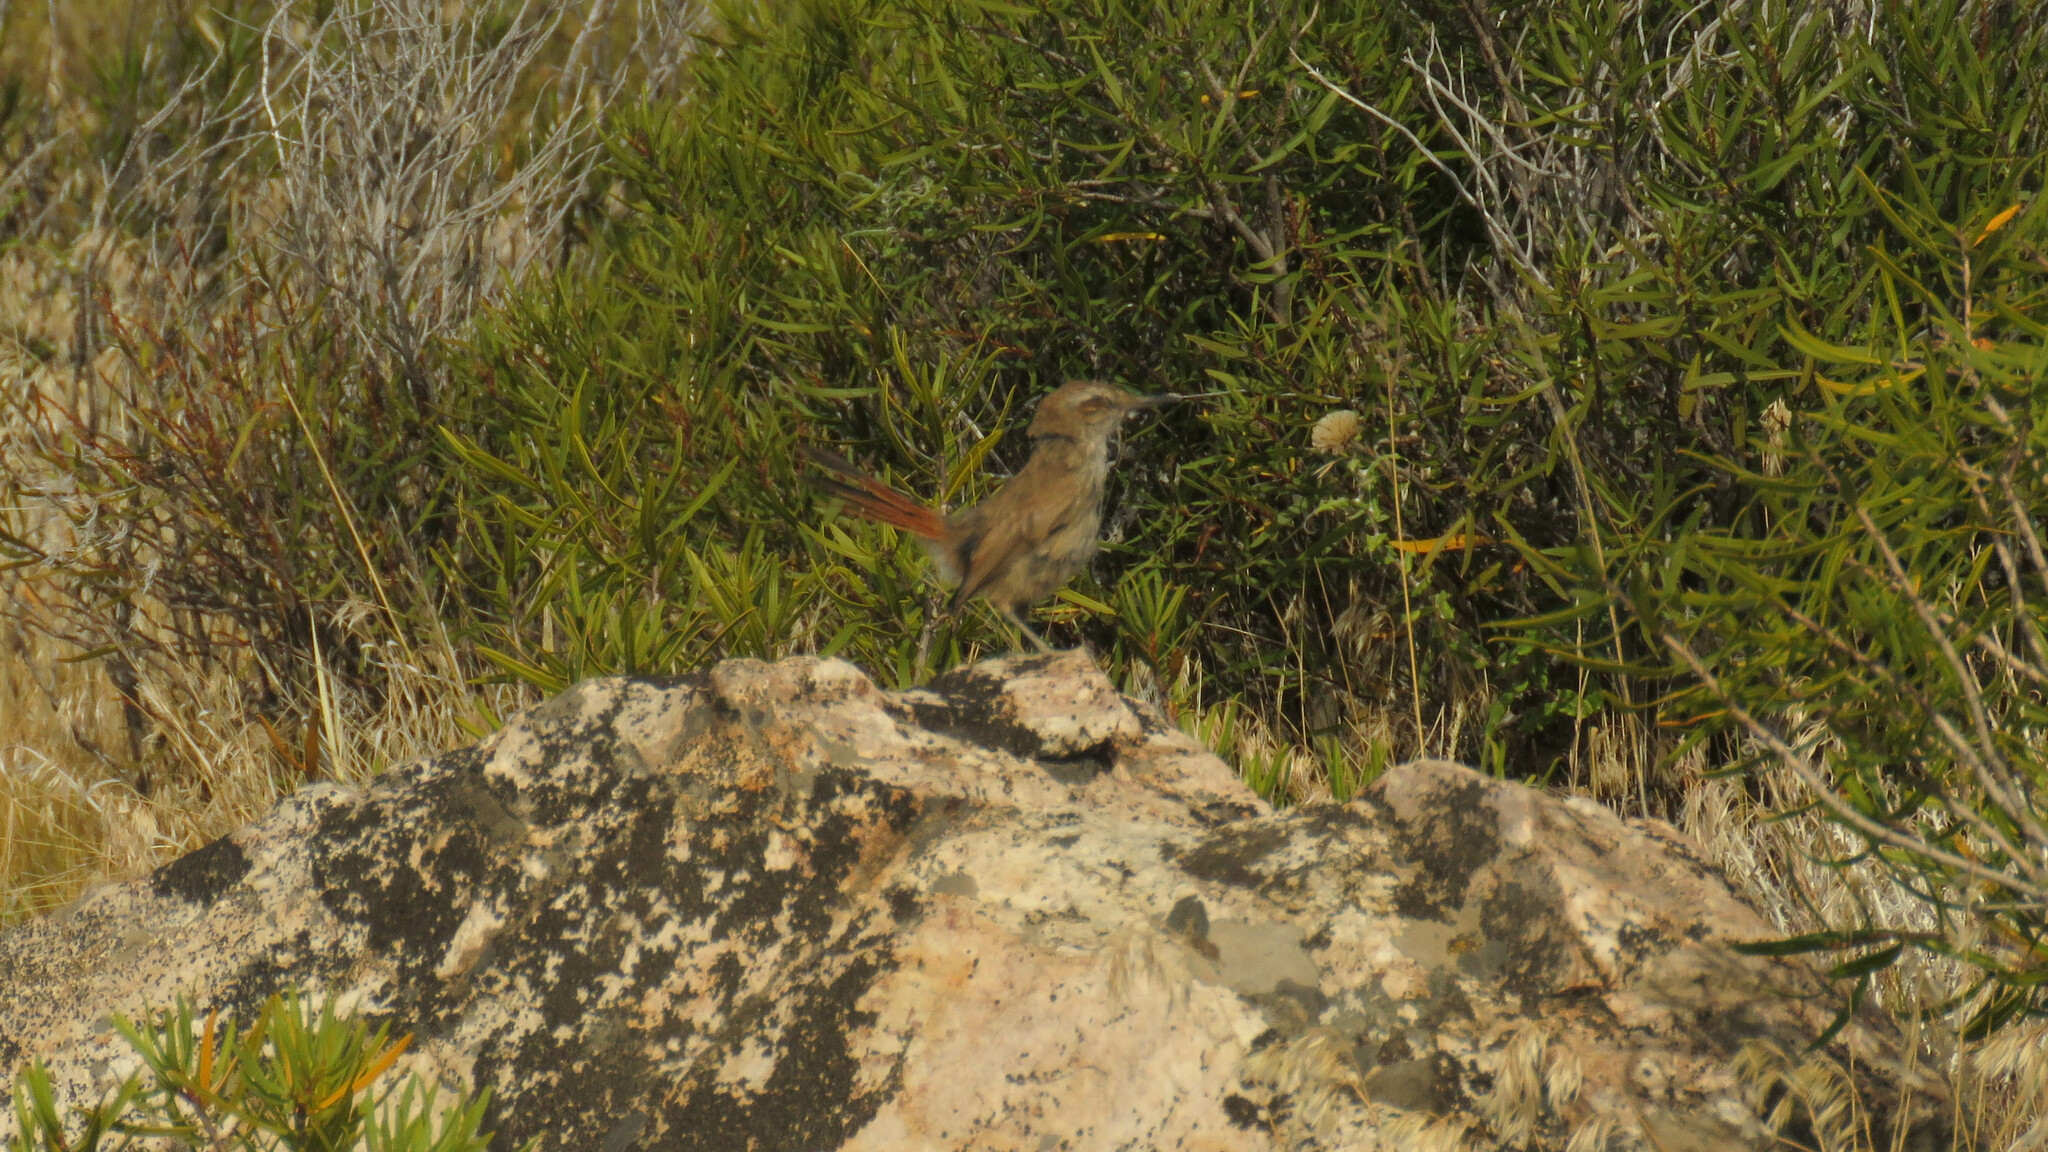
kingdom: Animalia
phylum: Chordata
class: Aves
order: Passeriformes
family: Furnariidae
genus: Eremobius
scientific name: Eremobius phoenicurus
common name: Band-tailed eremobius
